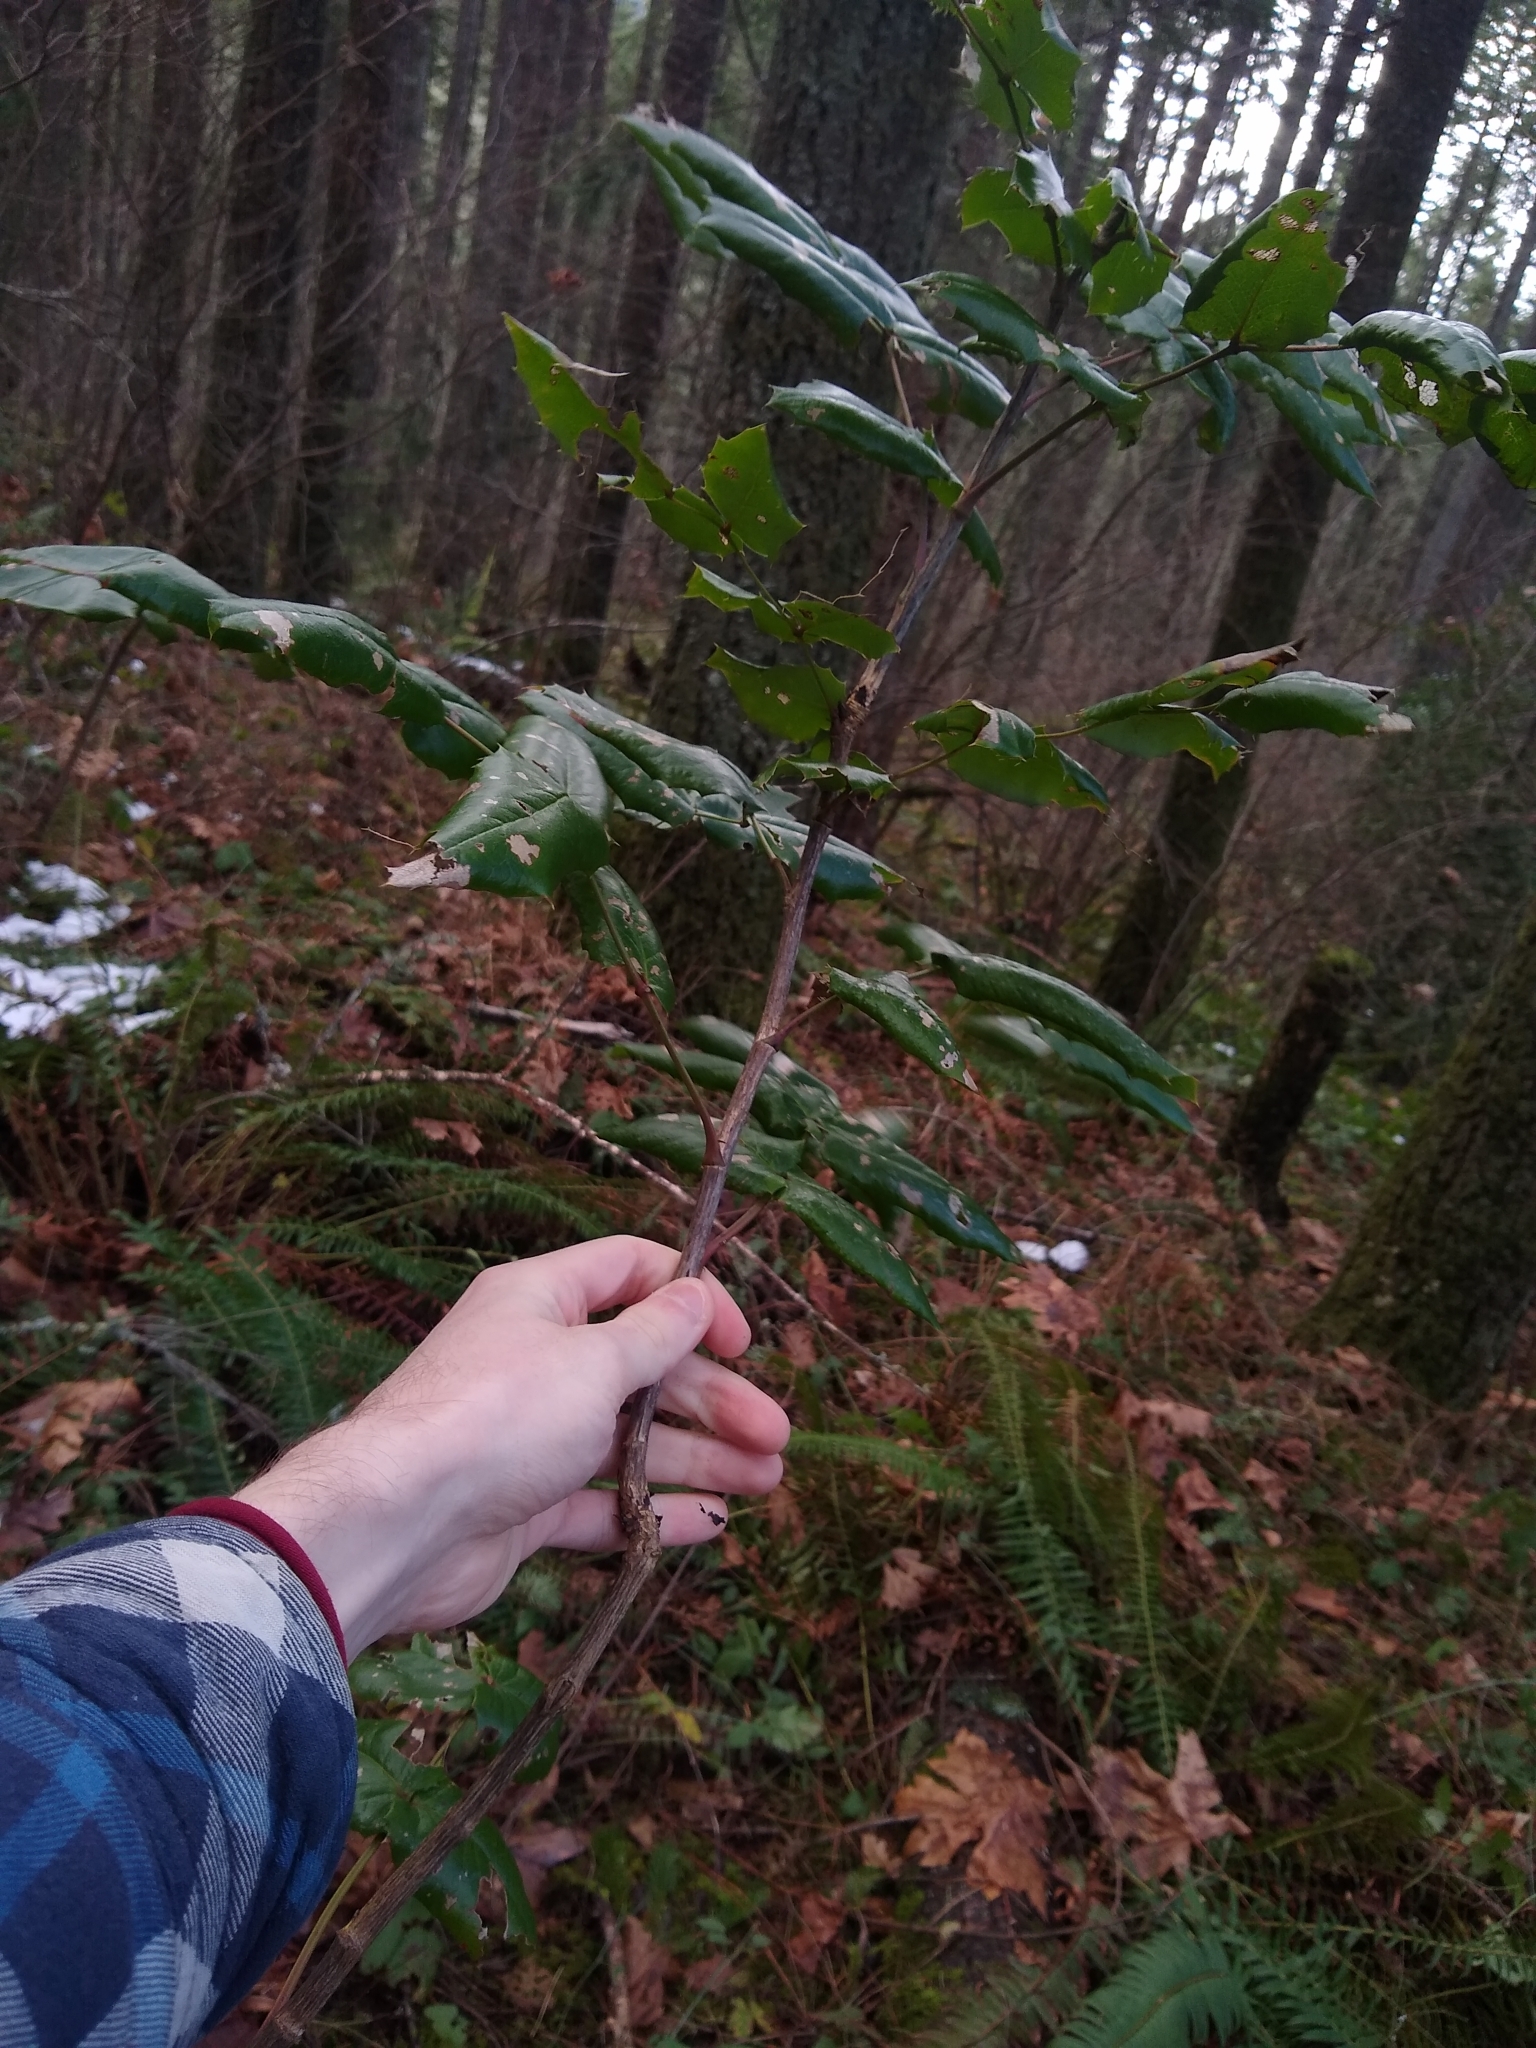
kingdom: Plantae
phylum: Tracheophyta
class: Magnoliopsida
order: Ranunculales
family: Berberidaceae
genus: Mahonia
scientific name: Mahonia aquifolium
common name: Oregon-grape
